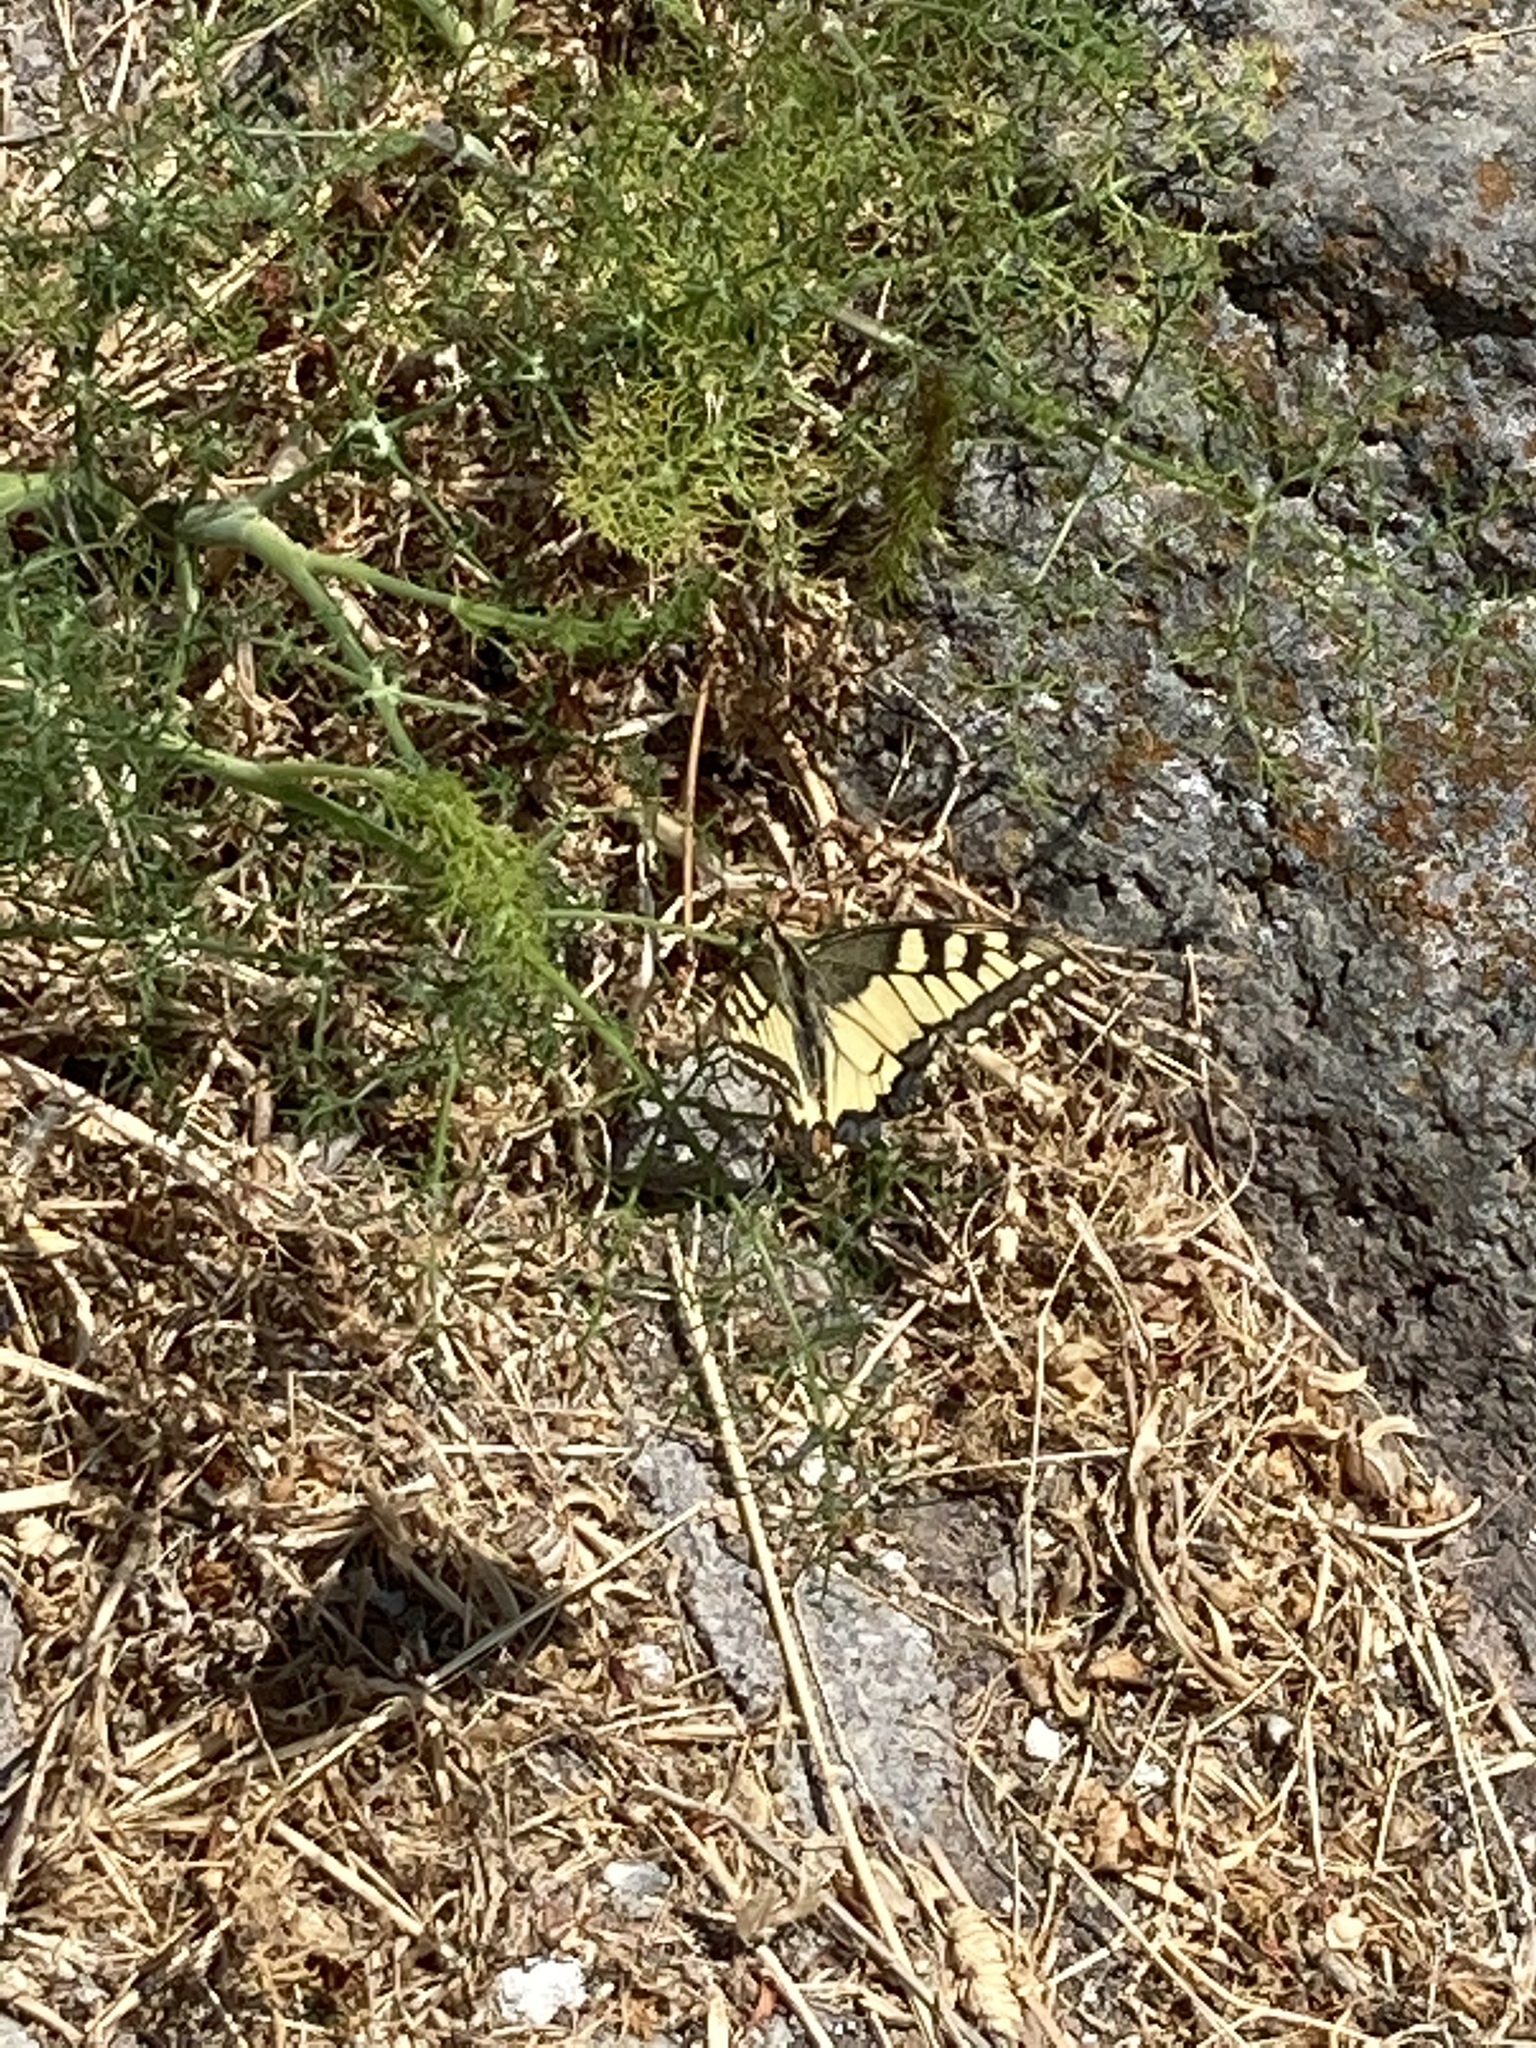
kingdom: Animalia
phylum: Arthropoda
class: Insecta
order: Lepidoptera
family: Papilionidae
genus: Papilio
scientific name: Papilio machaon
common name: Swallowtail
